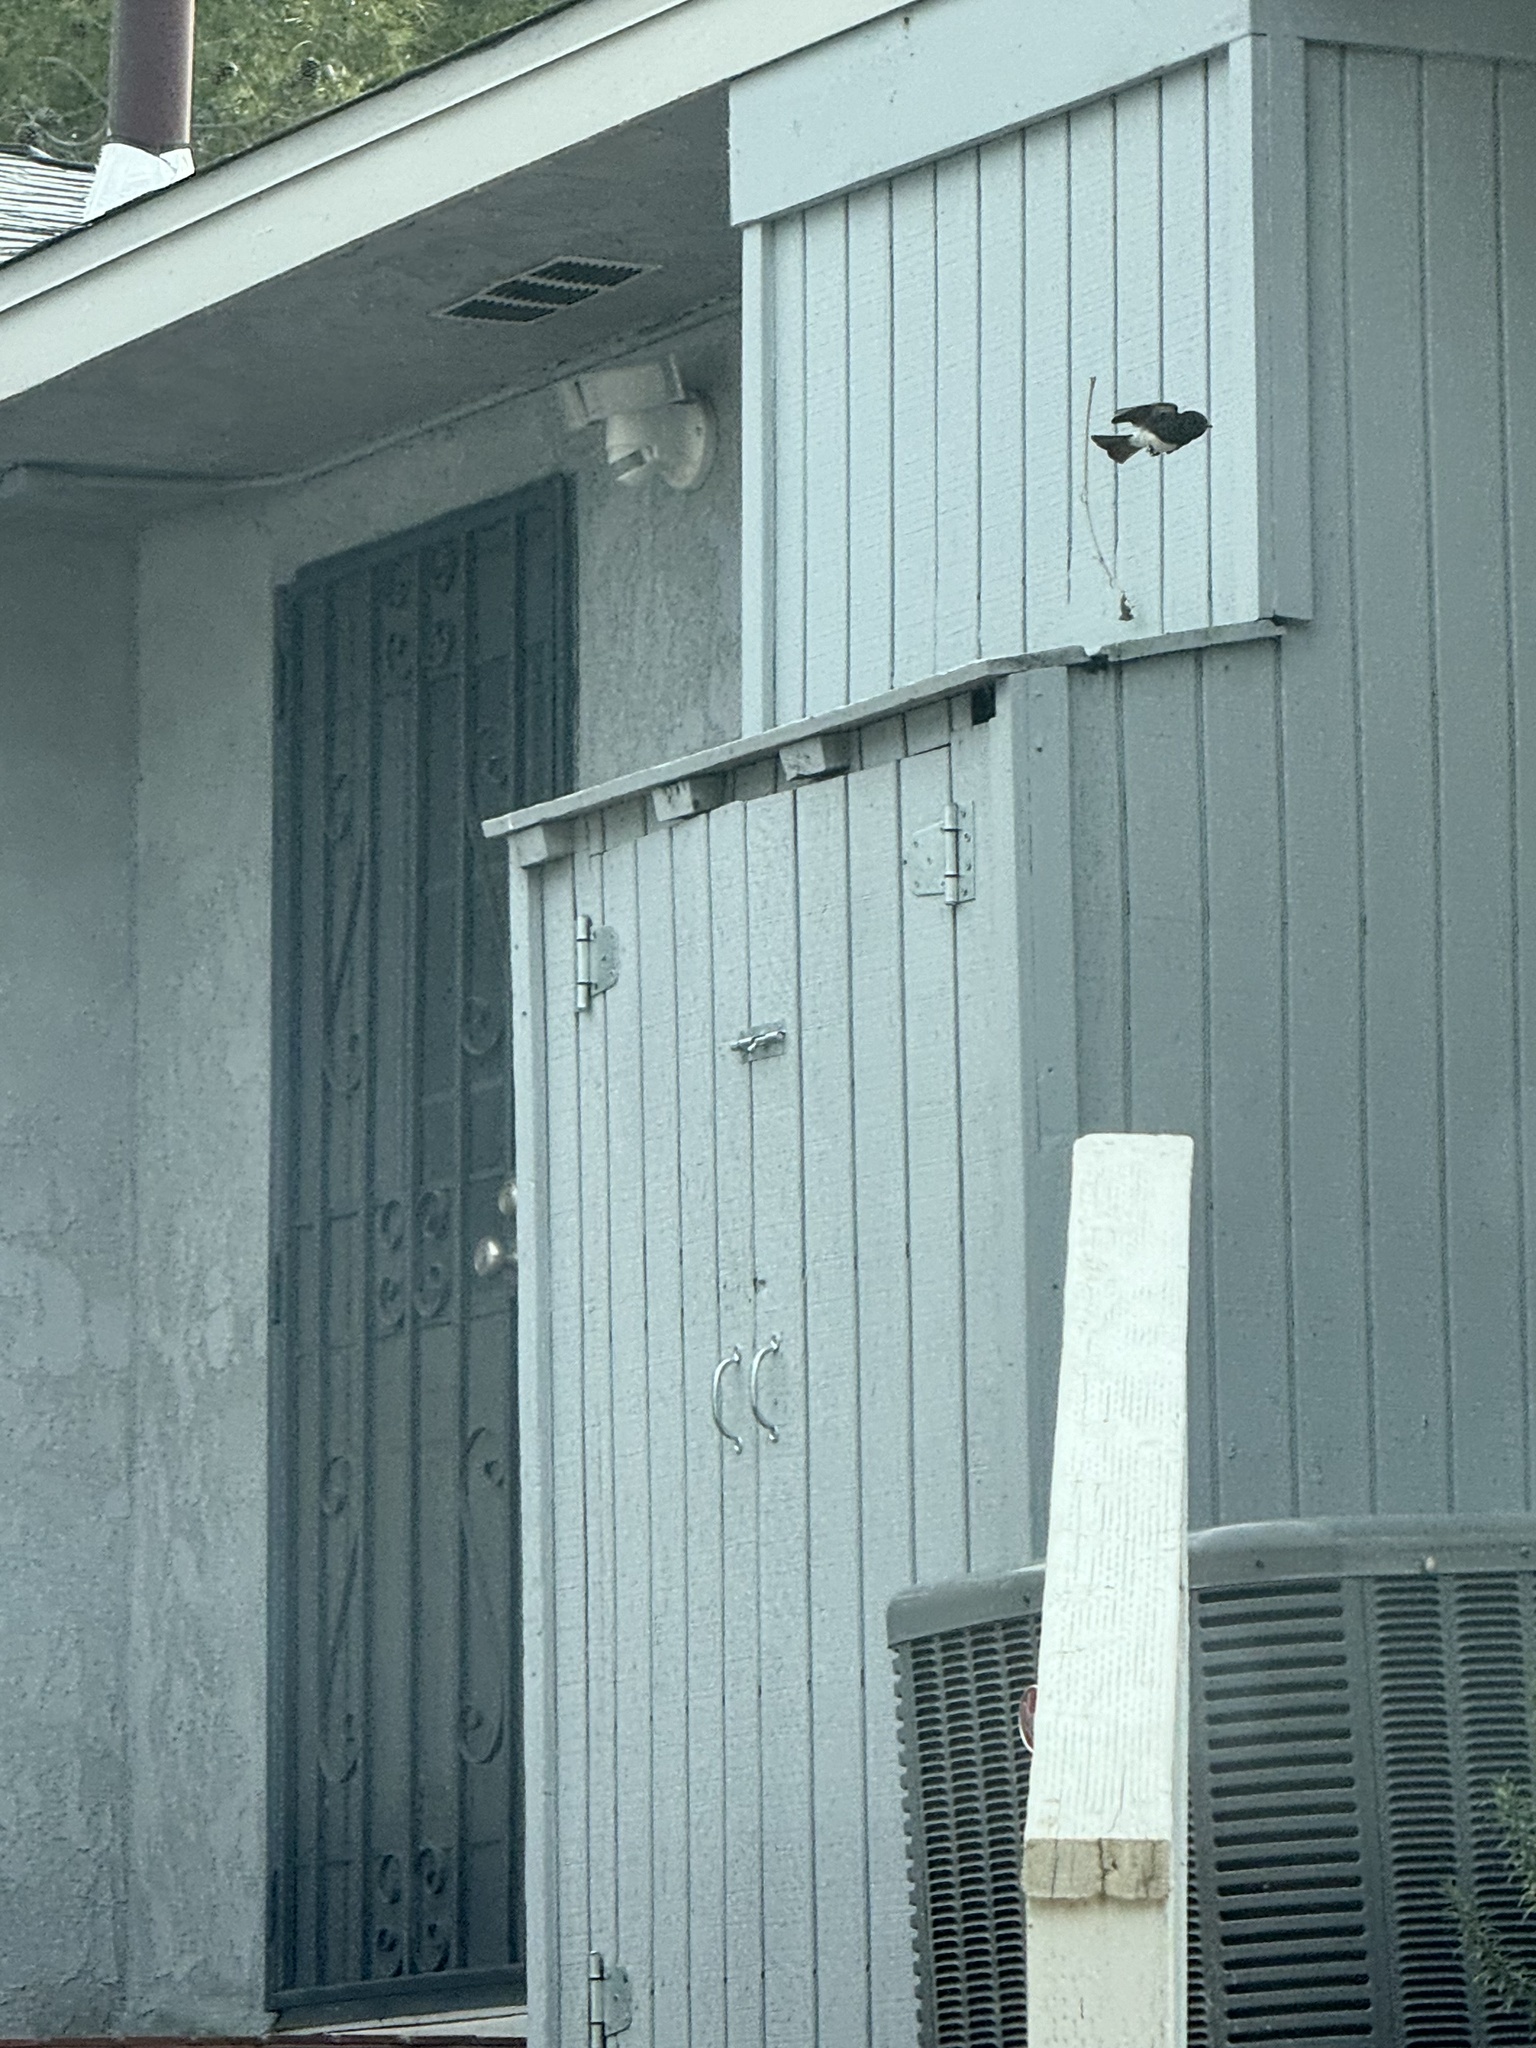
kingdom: Animalia
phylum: Chordata
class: Aves
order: Passeriformes
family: Tyrannidae
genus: Sayornis
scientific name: Sayornis nigricans
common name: Black phoebe
